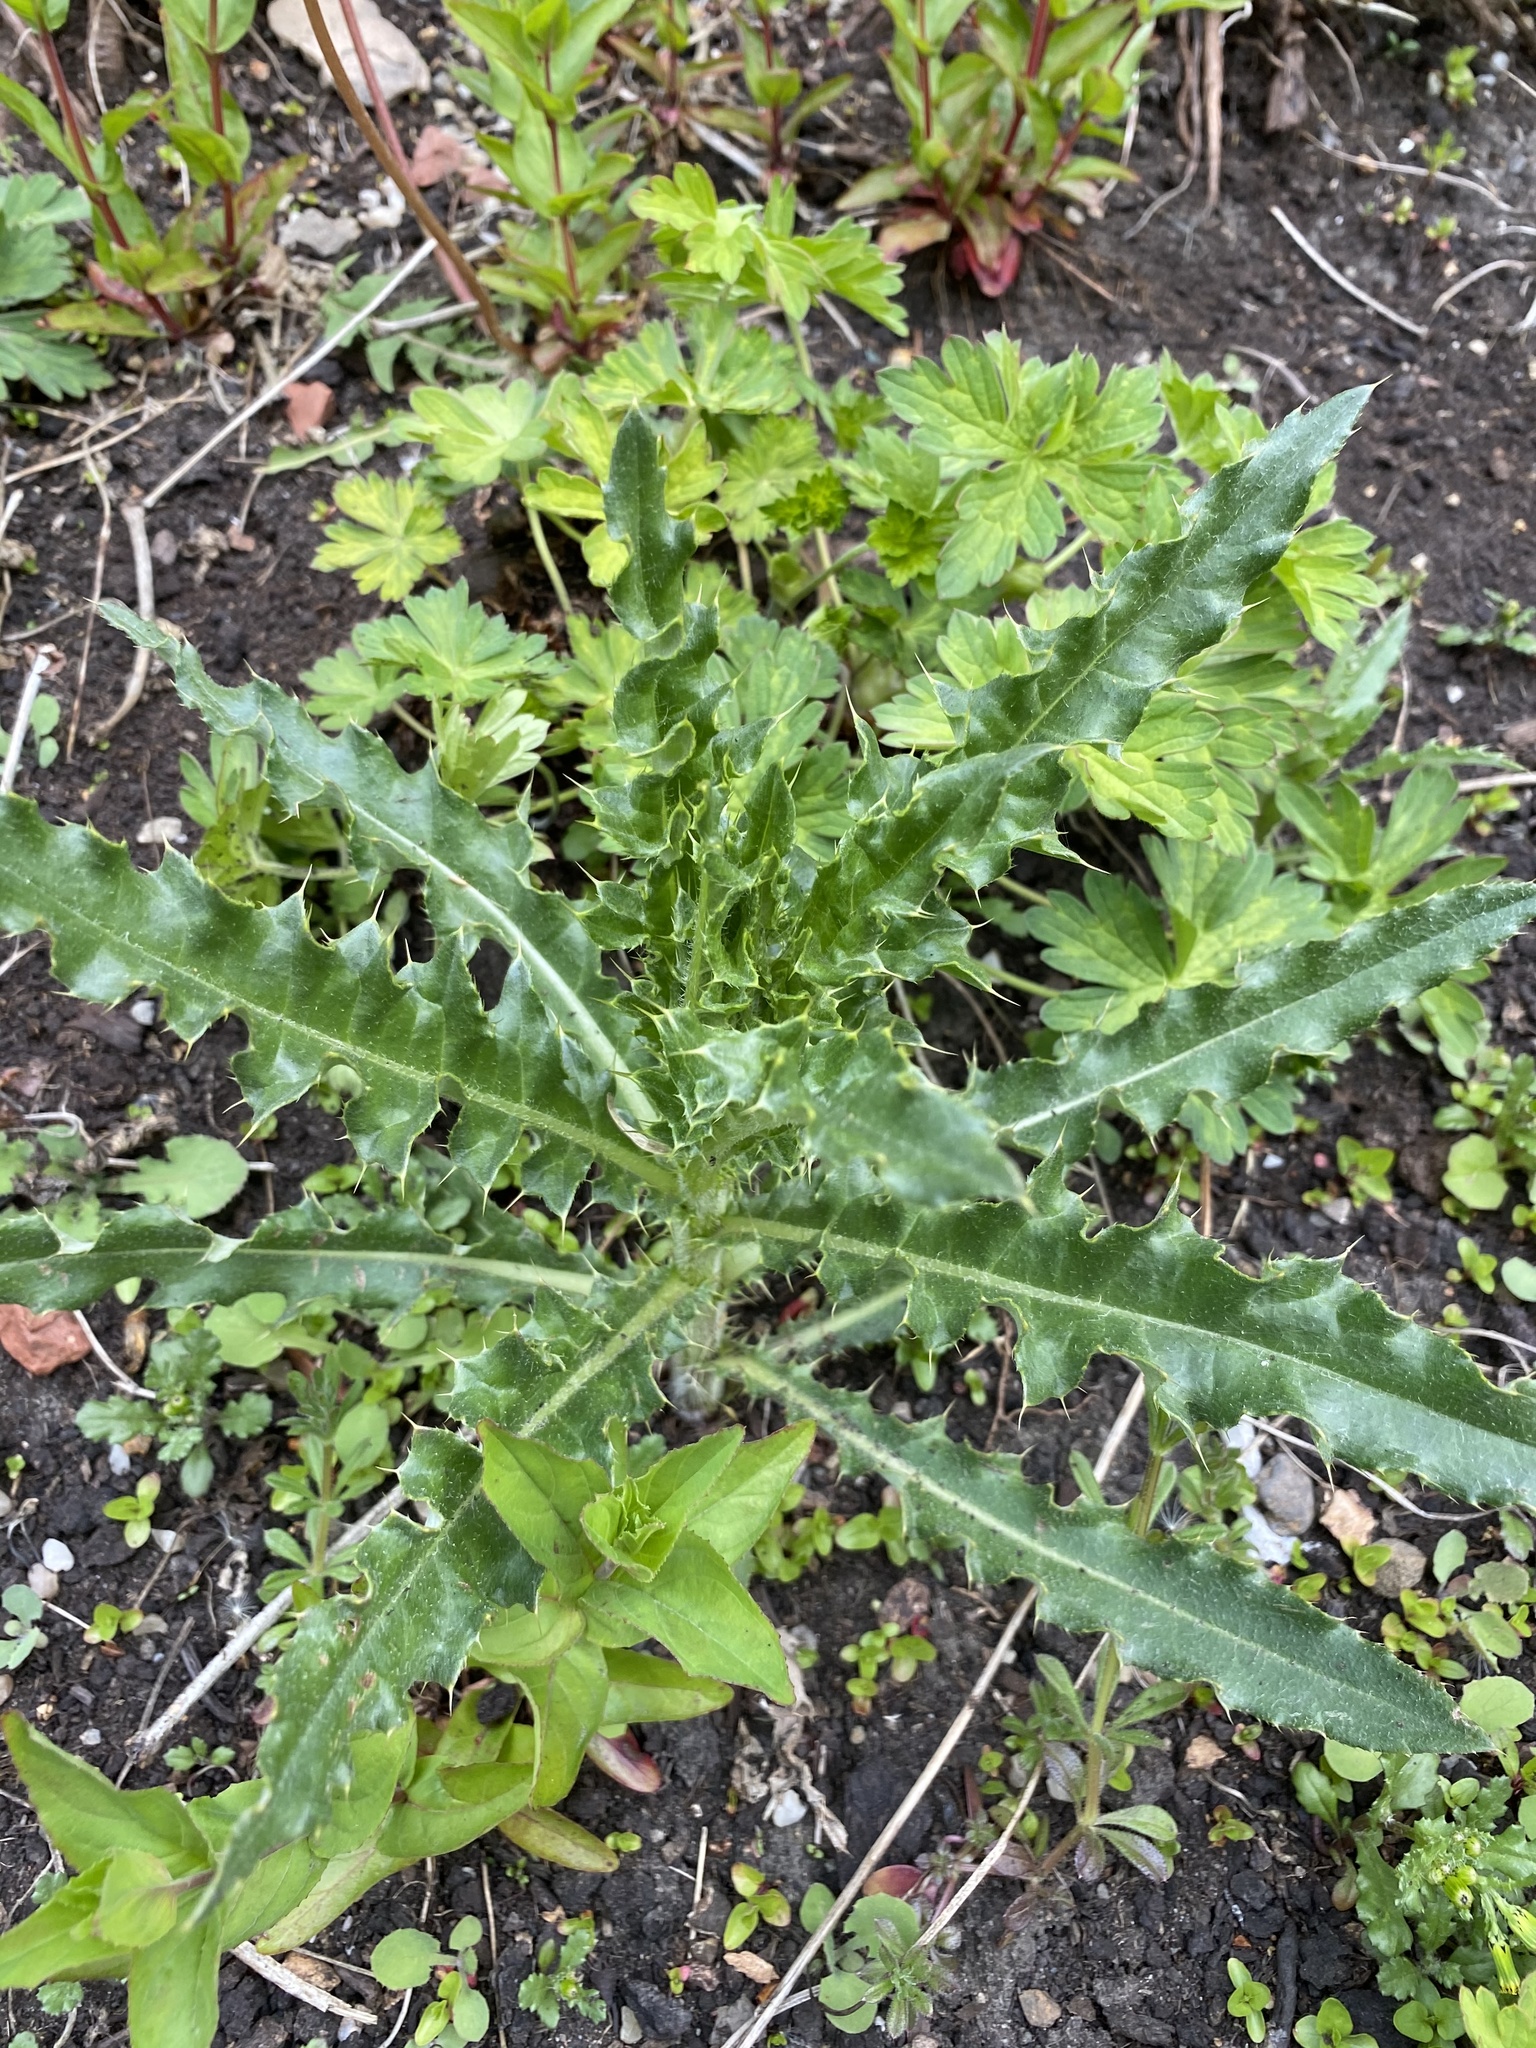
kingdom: Plantae
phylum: Tracheophyta
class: Magnoliopsida
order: Asterales
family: Asteraceae
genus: Cirsium
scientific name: Cirsium arvense
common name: Creeping thistle
